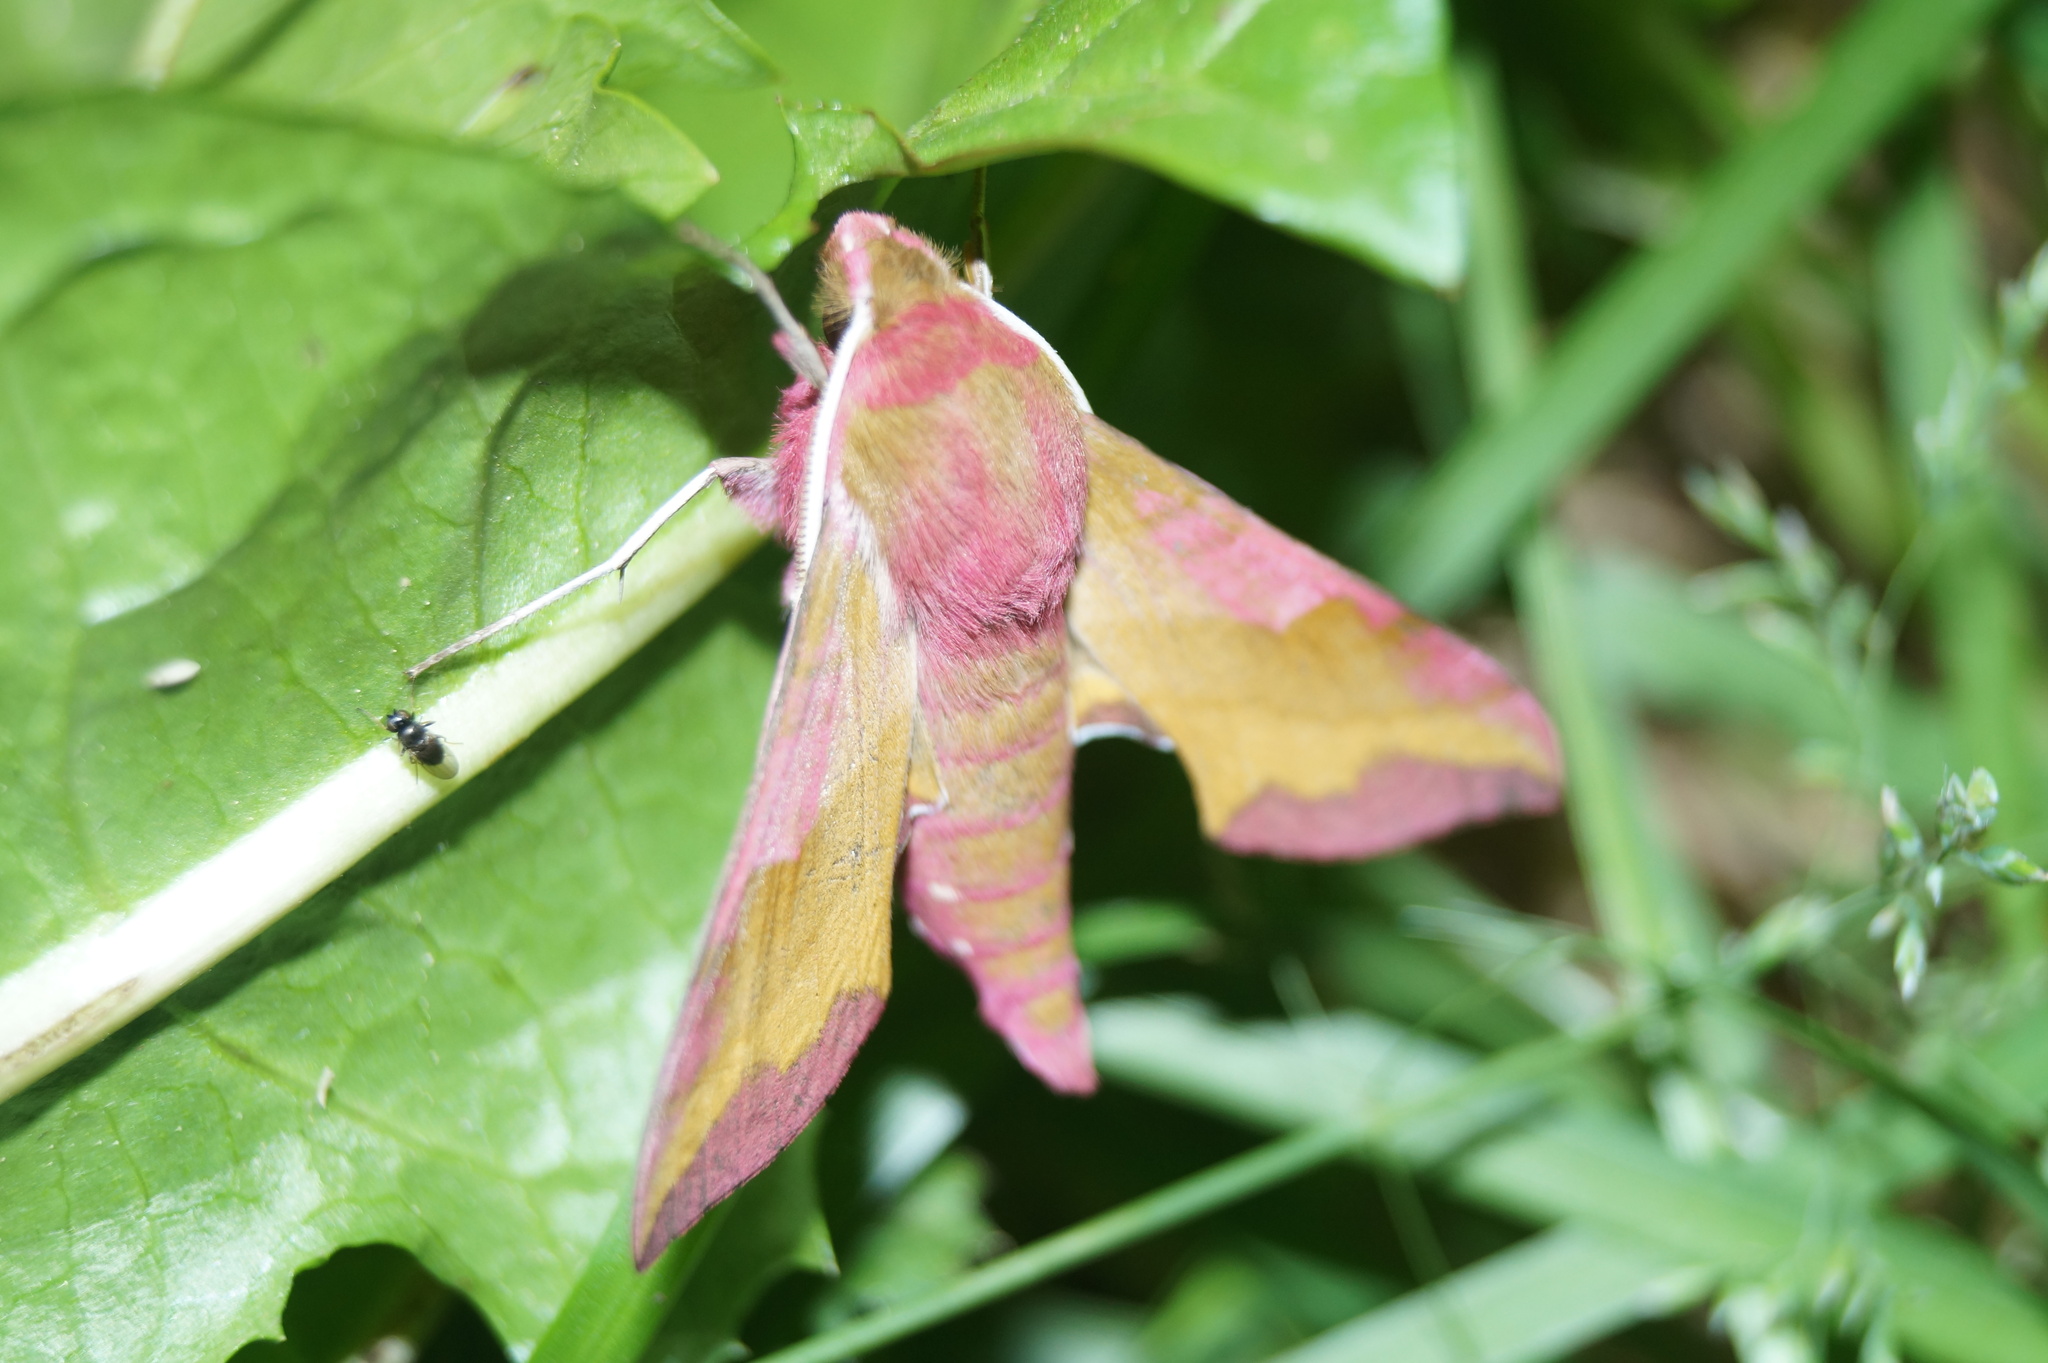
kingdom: Animalia
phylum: Arthropoda
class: Insecta
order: Lepidoptera
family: Sphingidae
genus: Deilephila
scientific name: Deilephila porcellus
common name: Small elephant hawk-moth
